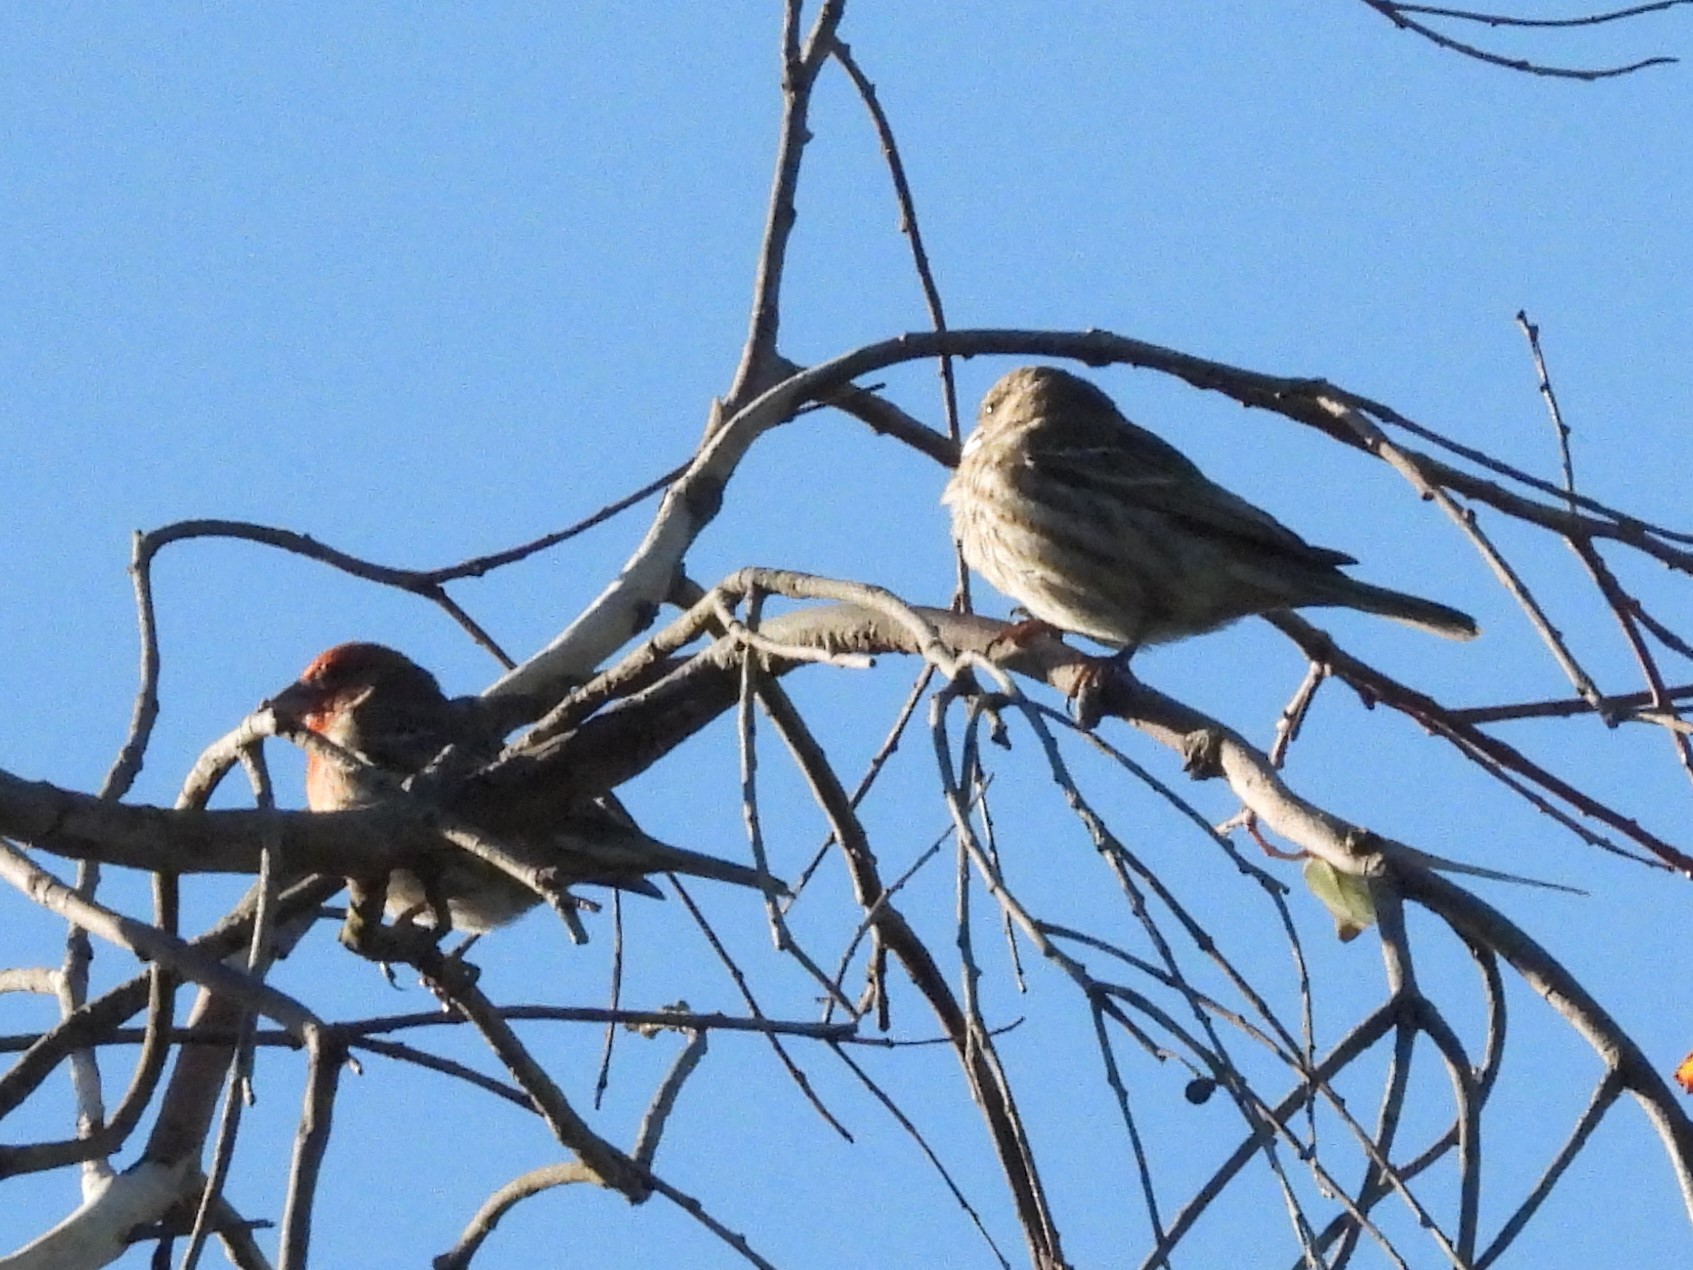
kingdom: Animalia
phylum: Chordata
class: Aves
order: Passeriformes
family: Fringillidae
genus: Haemorhous
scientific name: Haemorhous mexicanus
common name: House finch
